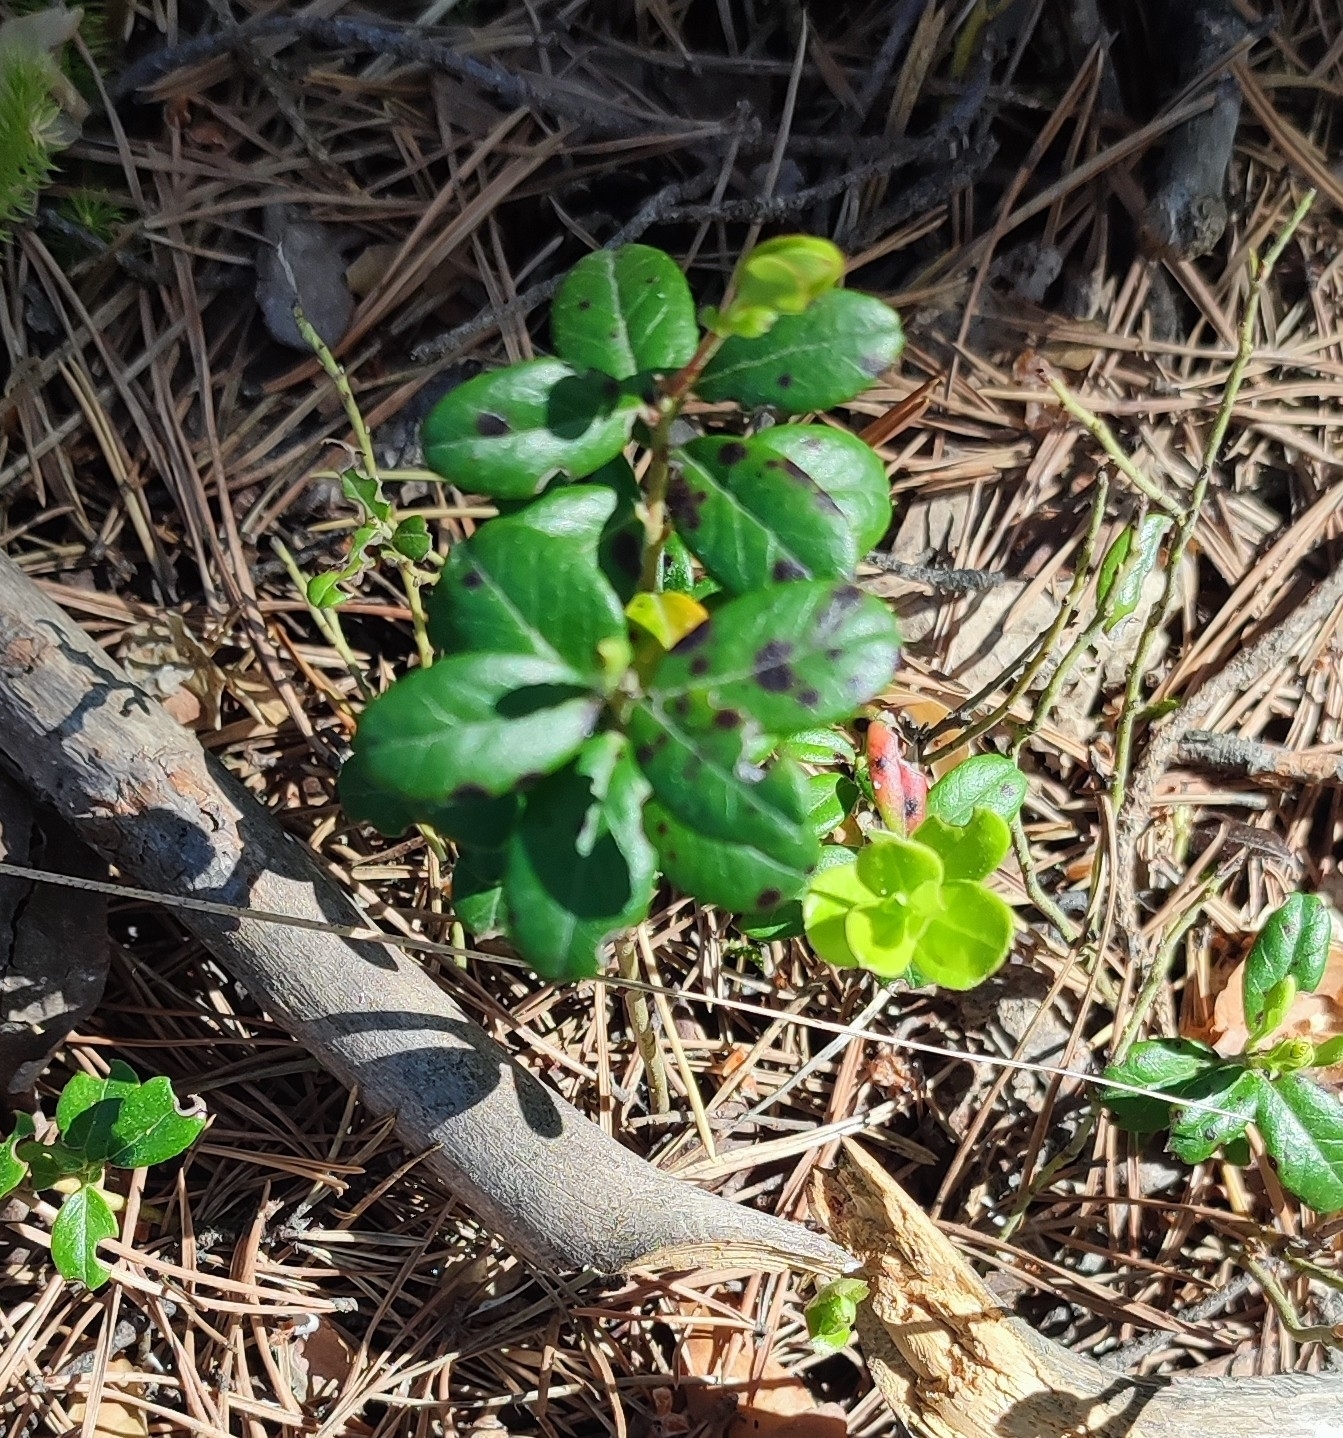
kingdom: Plantae
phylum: Tracheophyta
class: Magnoliopsida
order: Ericales
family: Ericaceae
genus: Vaccinium
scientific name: Vaccinium vitis-idaea
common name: Cowberry
